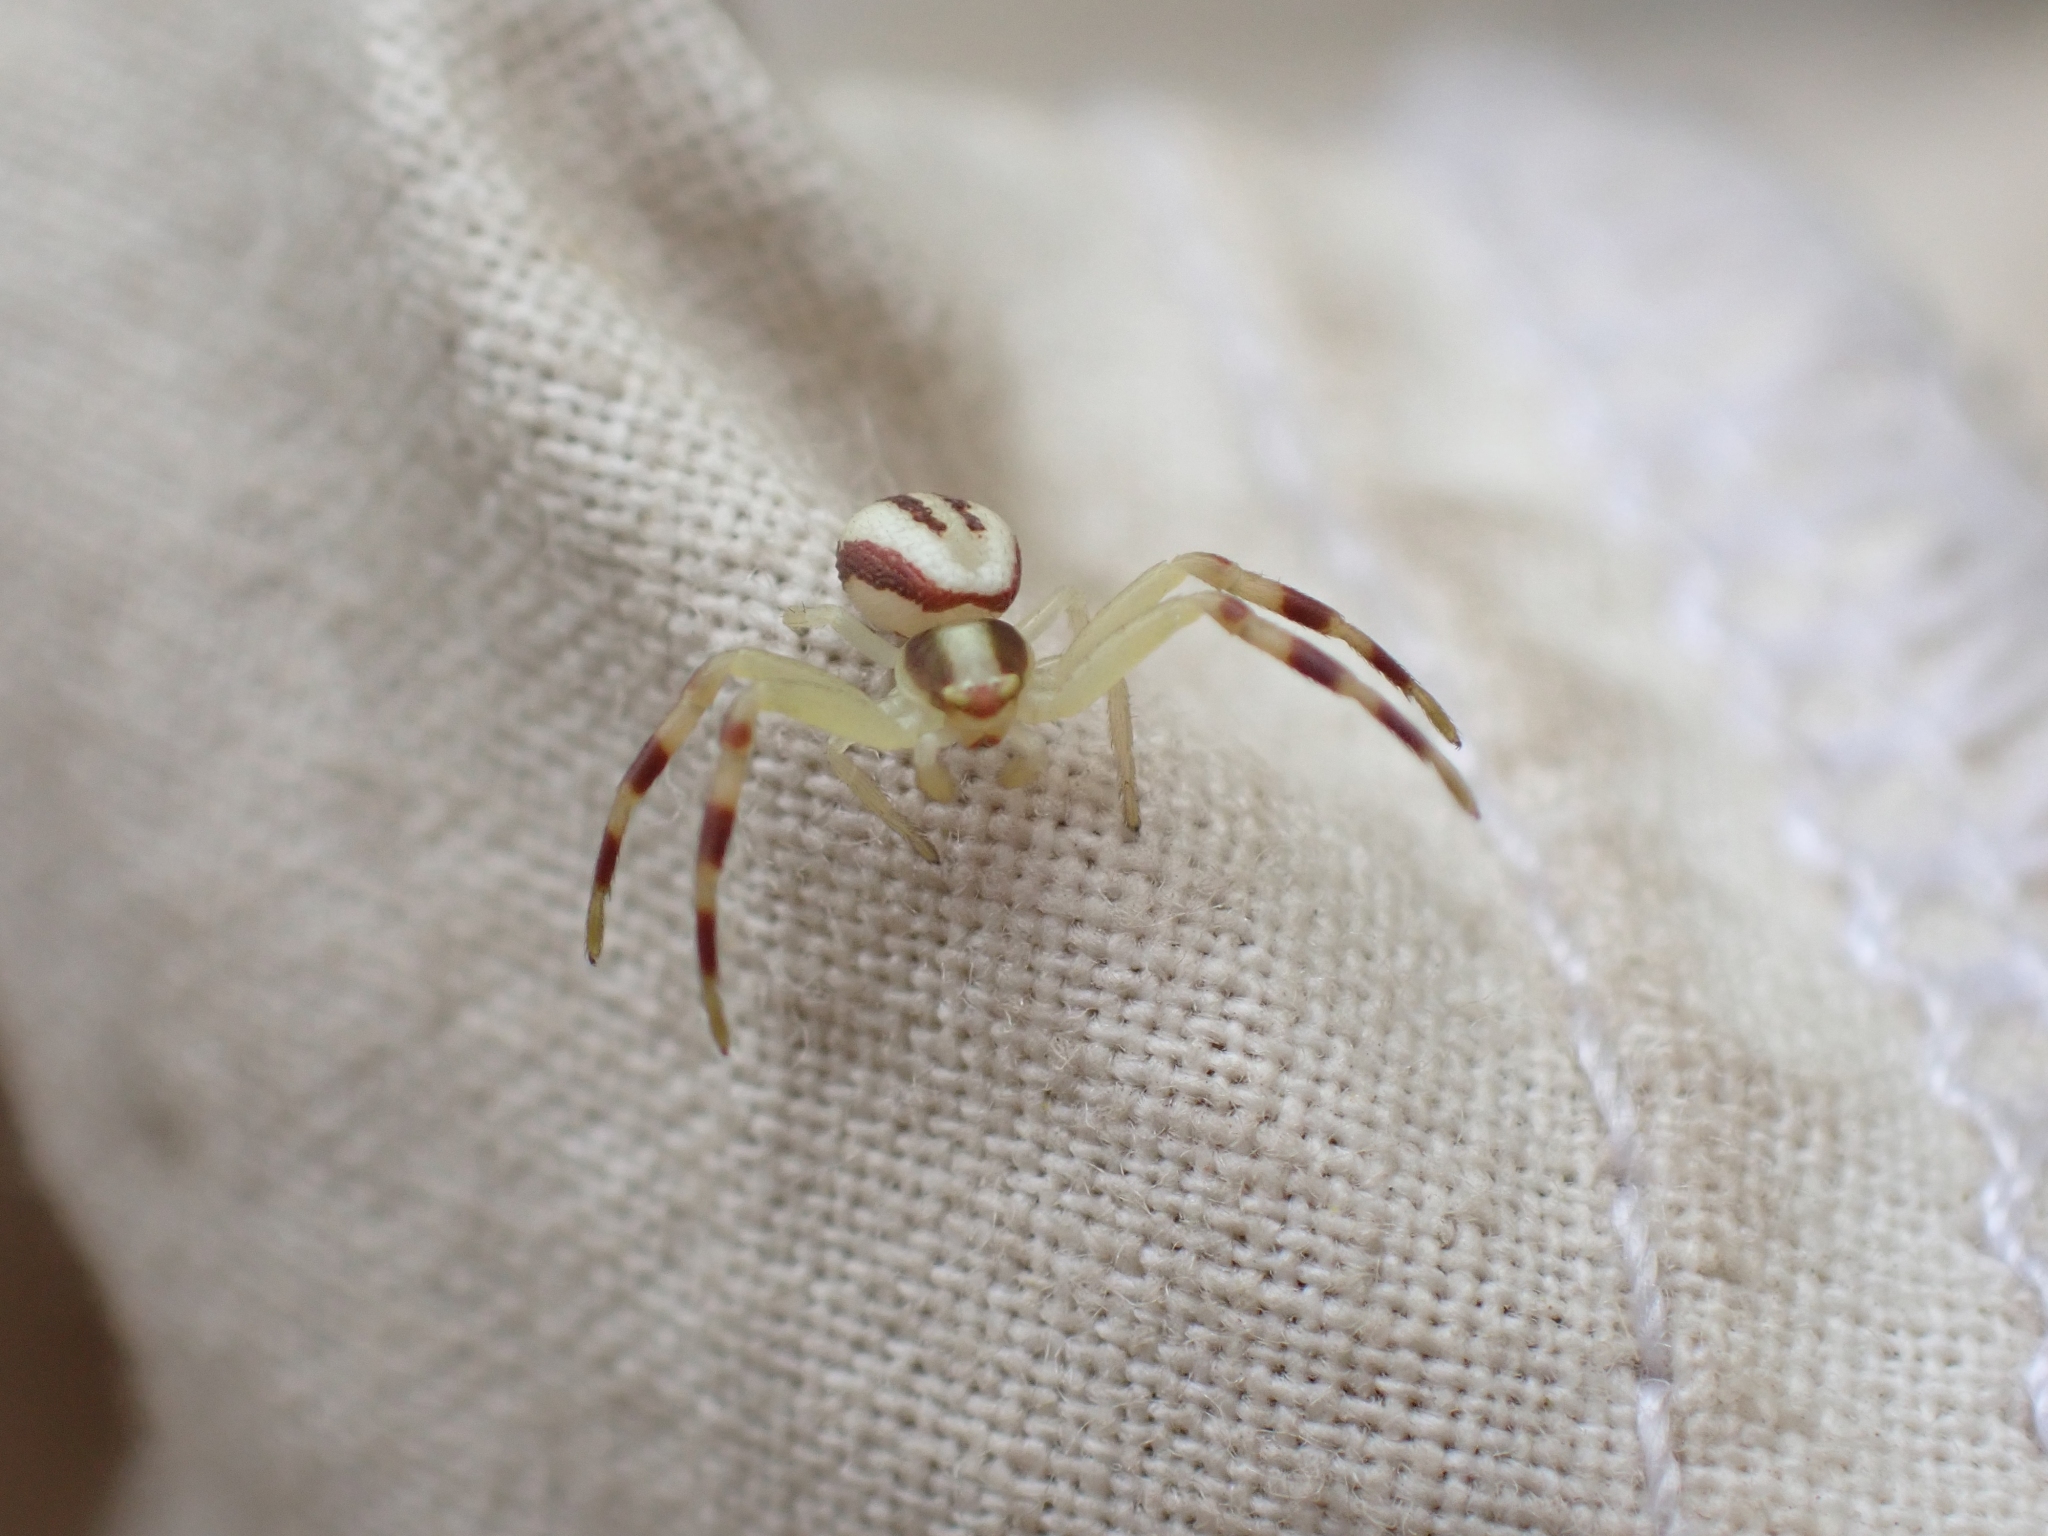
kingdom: Animalia
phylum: Arthropoda
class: Arachnida
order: Araneae
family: Thomisidae
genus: Misumena
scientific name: Misumena vatia
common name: Goldenrod crab spider
